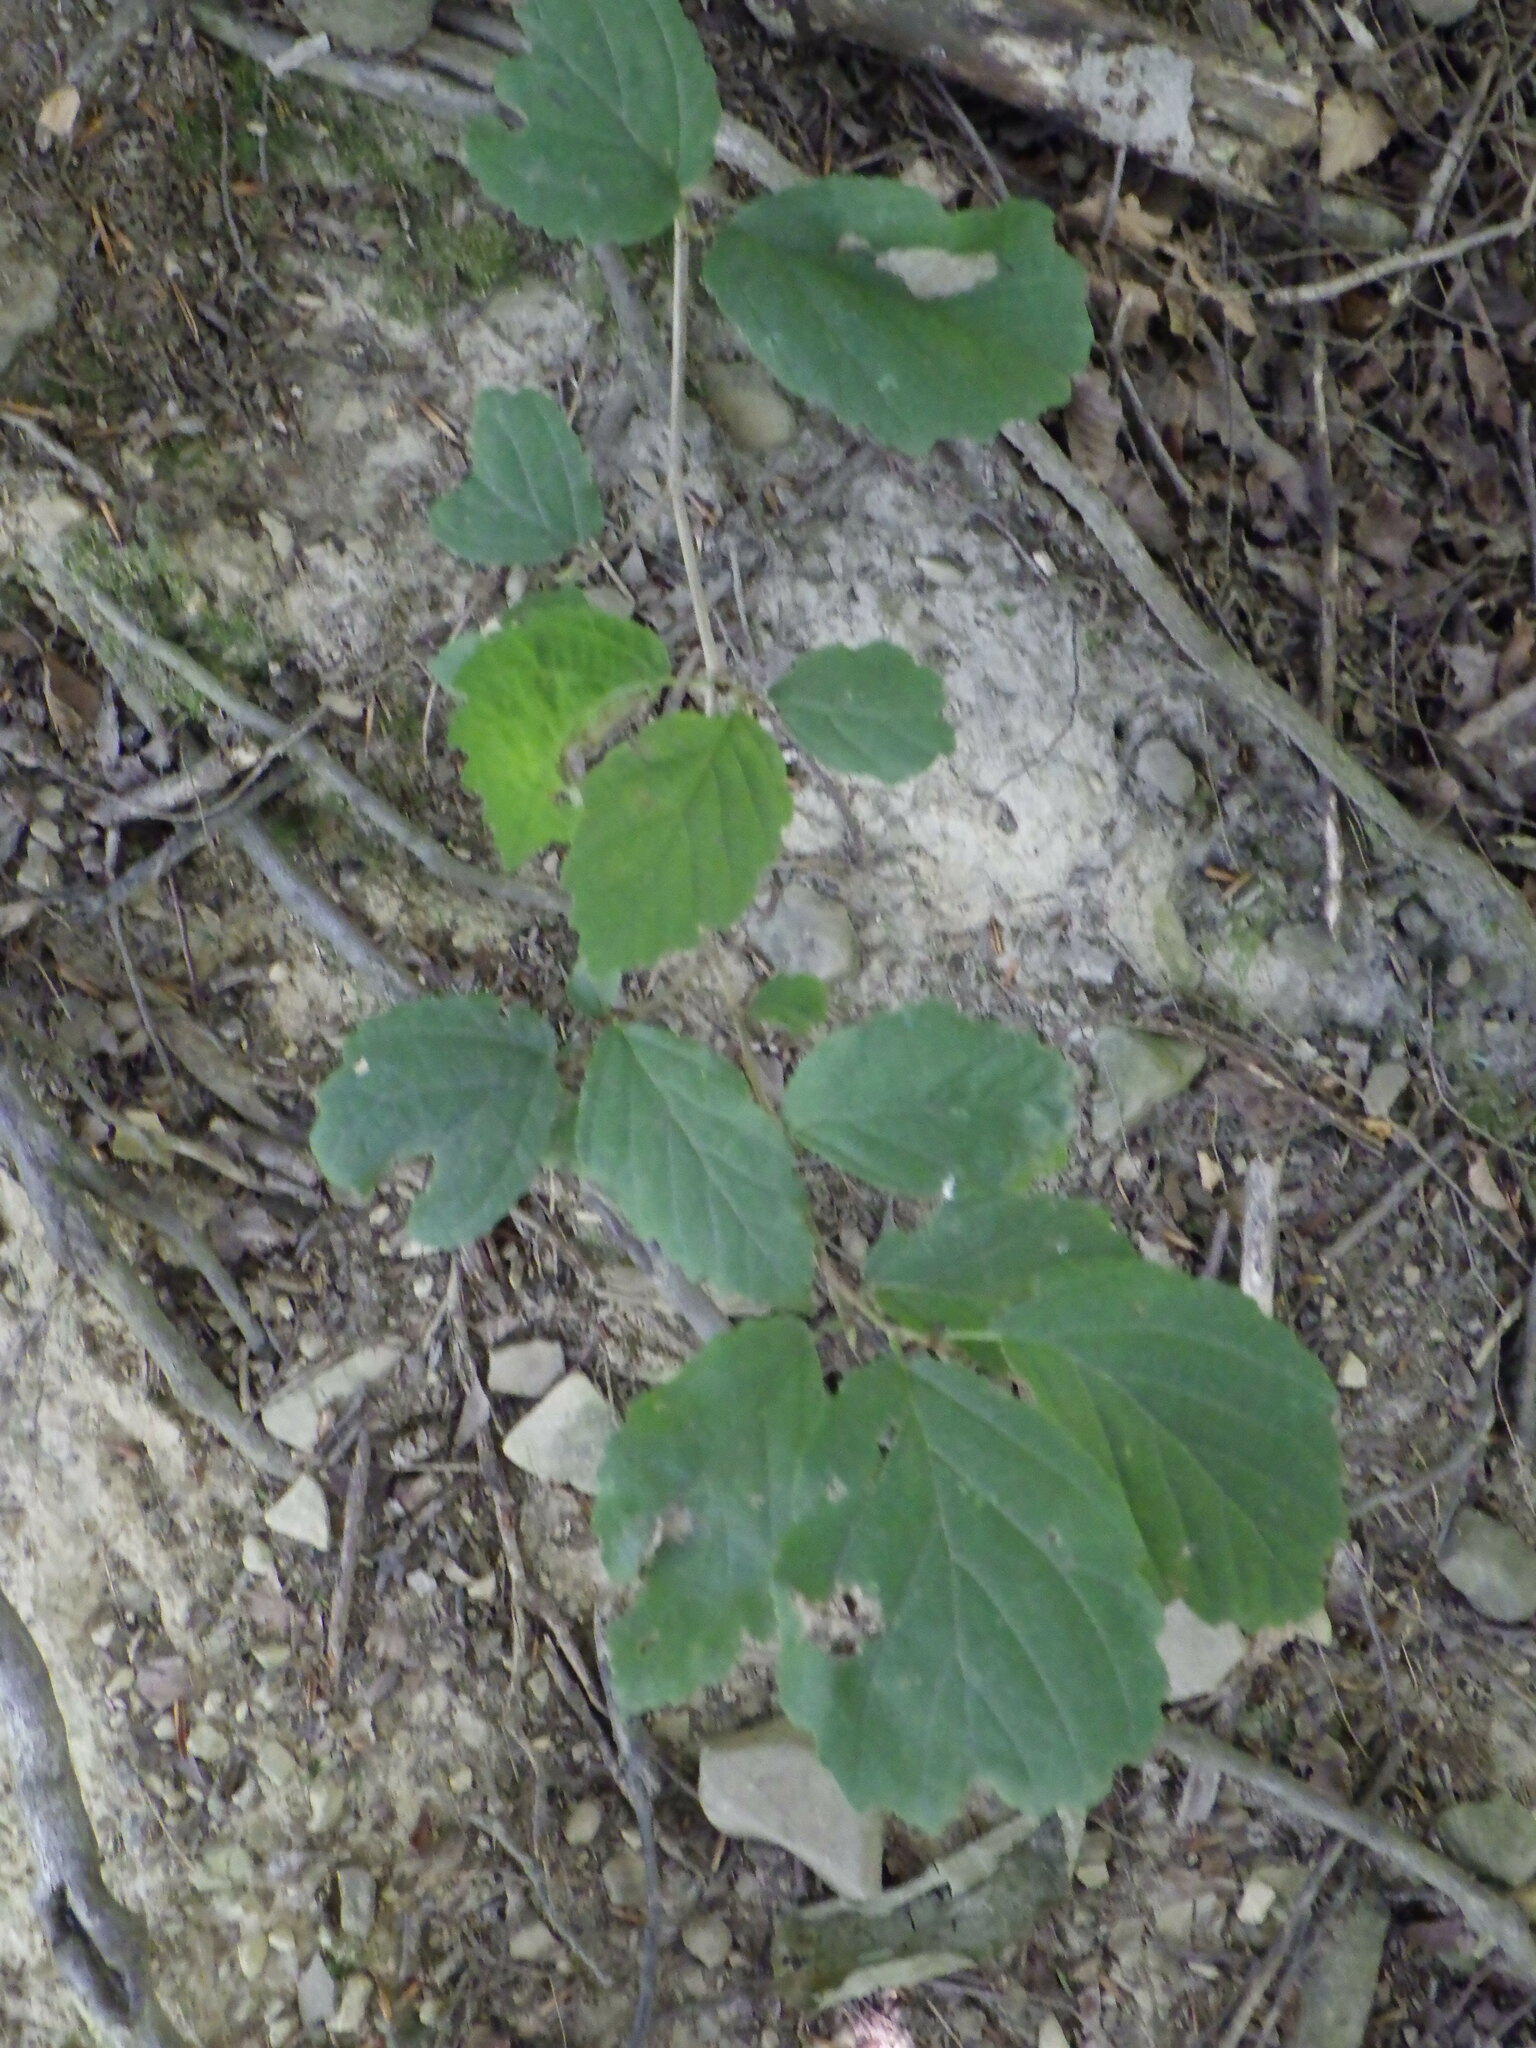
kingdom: Plantae
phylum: Tracheophyta
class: Magnoliopsida
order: Saxifragales
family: Hamamelidaceae
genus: Hamamelis
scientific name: Hamamelis virginiana
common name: Witch-hazel
